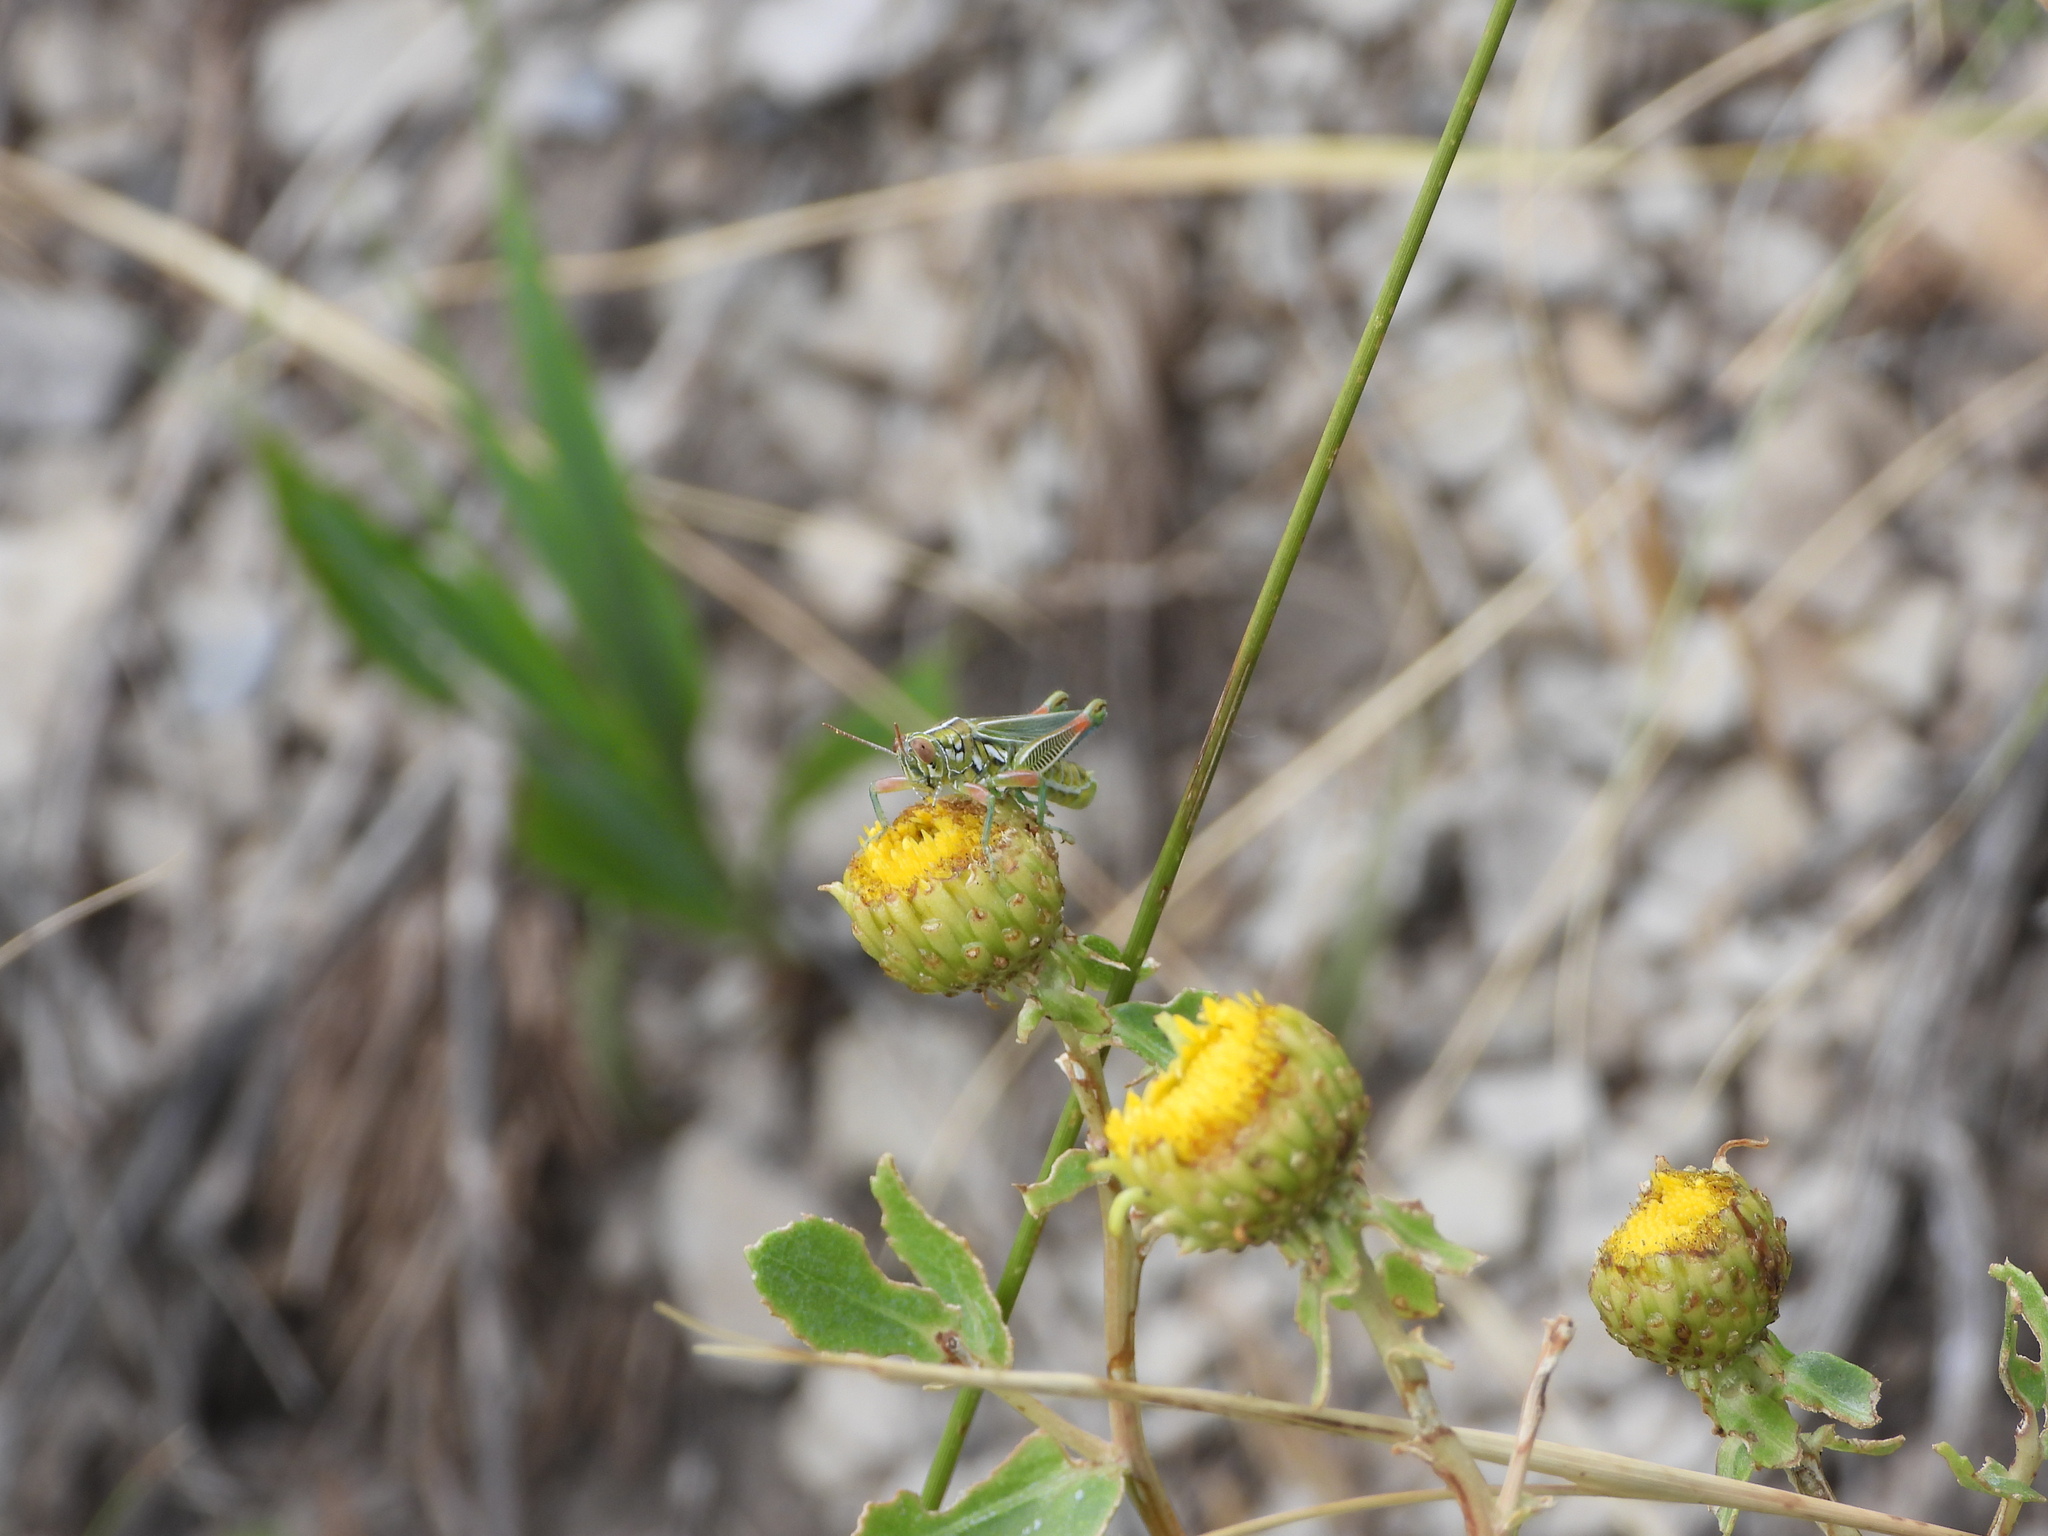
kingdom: Animalia
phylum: Arthropoda
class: Insecta
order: Orthoptera
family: Acrididae
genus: Hesperotettix
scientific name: Hesperotettix viridis
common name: Meadow purple-striped grasshopper
